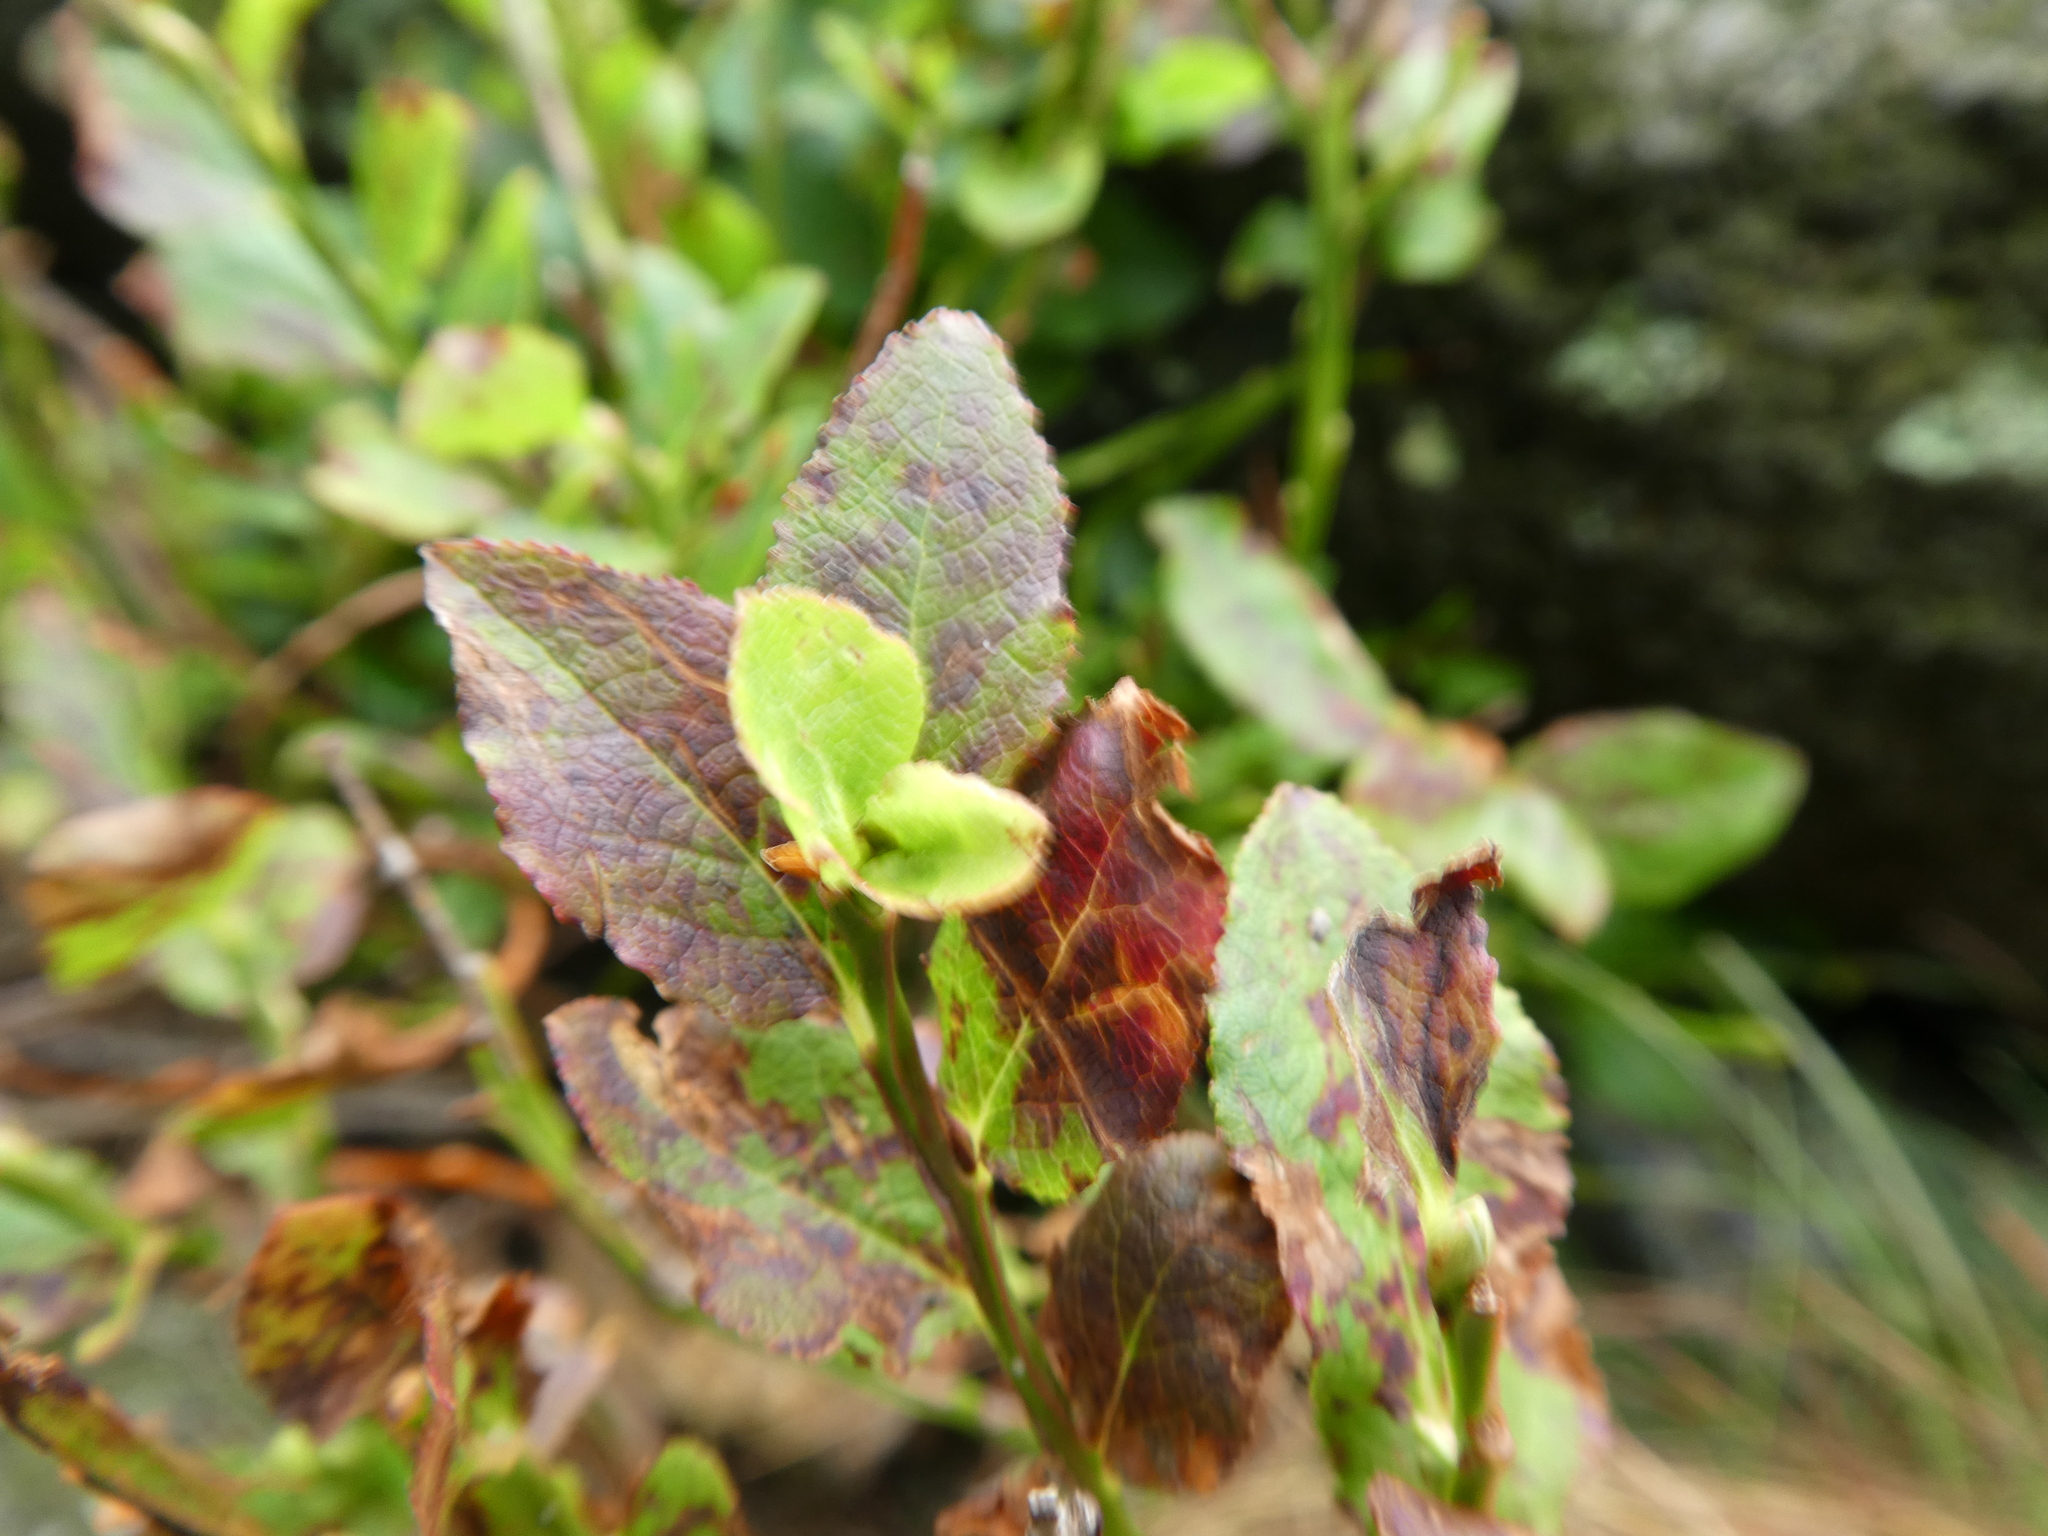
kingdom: Plantae
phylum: Tracheophyta
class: Magnoliopsida
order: Ericales
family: Ericaceae
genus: Vaccinium
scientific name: Vaccinium myrtillus
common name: Bilberry
